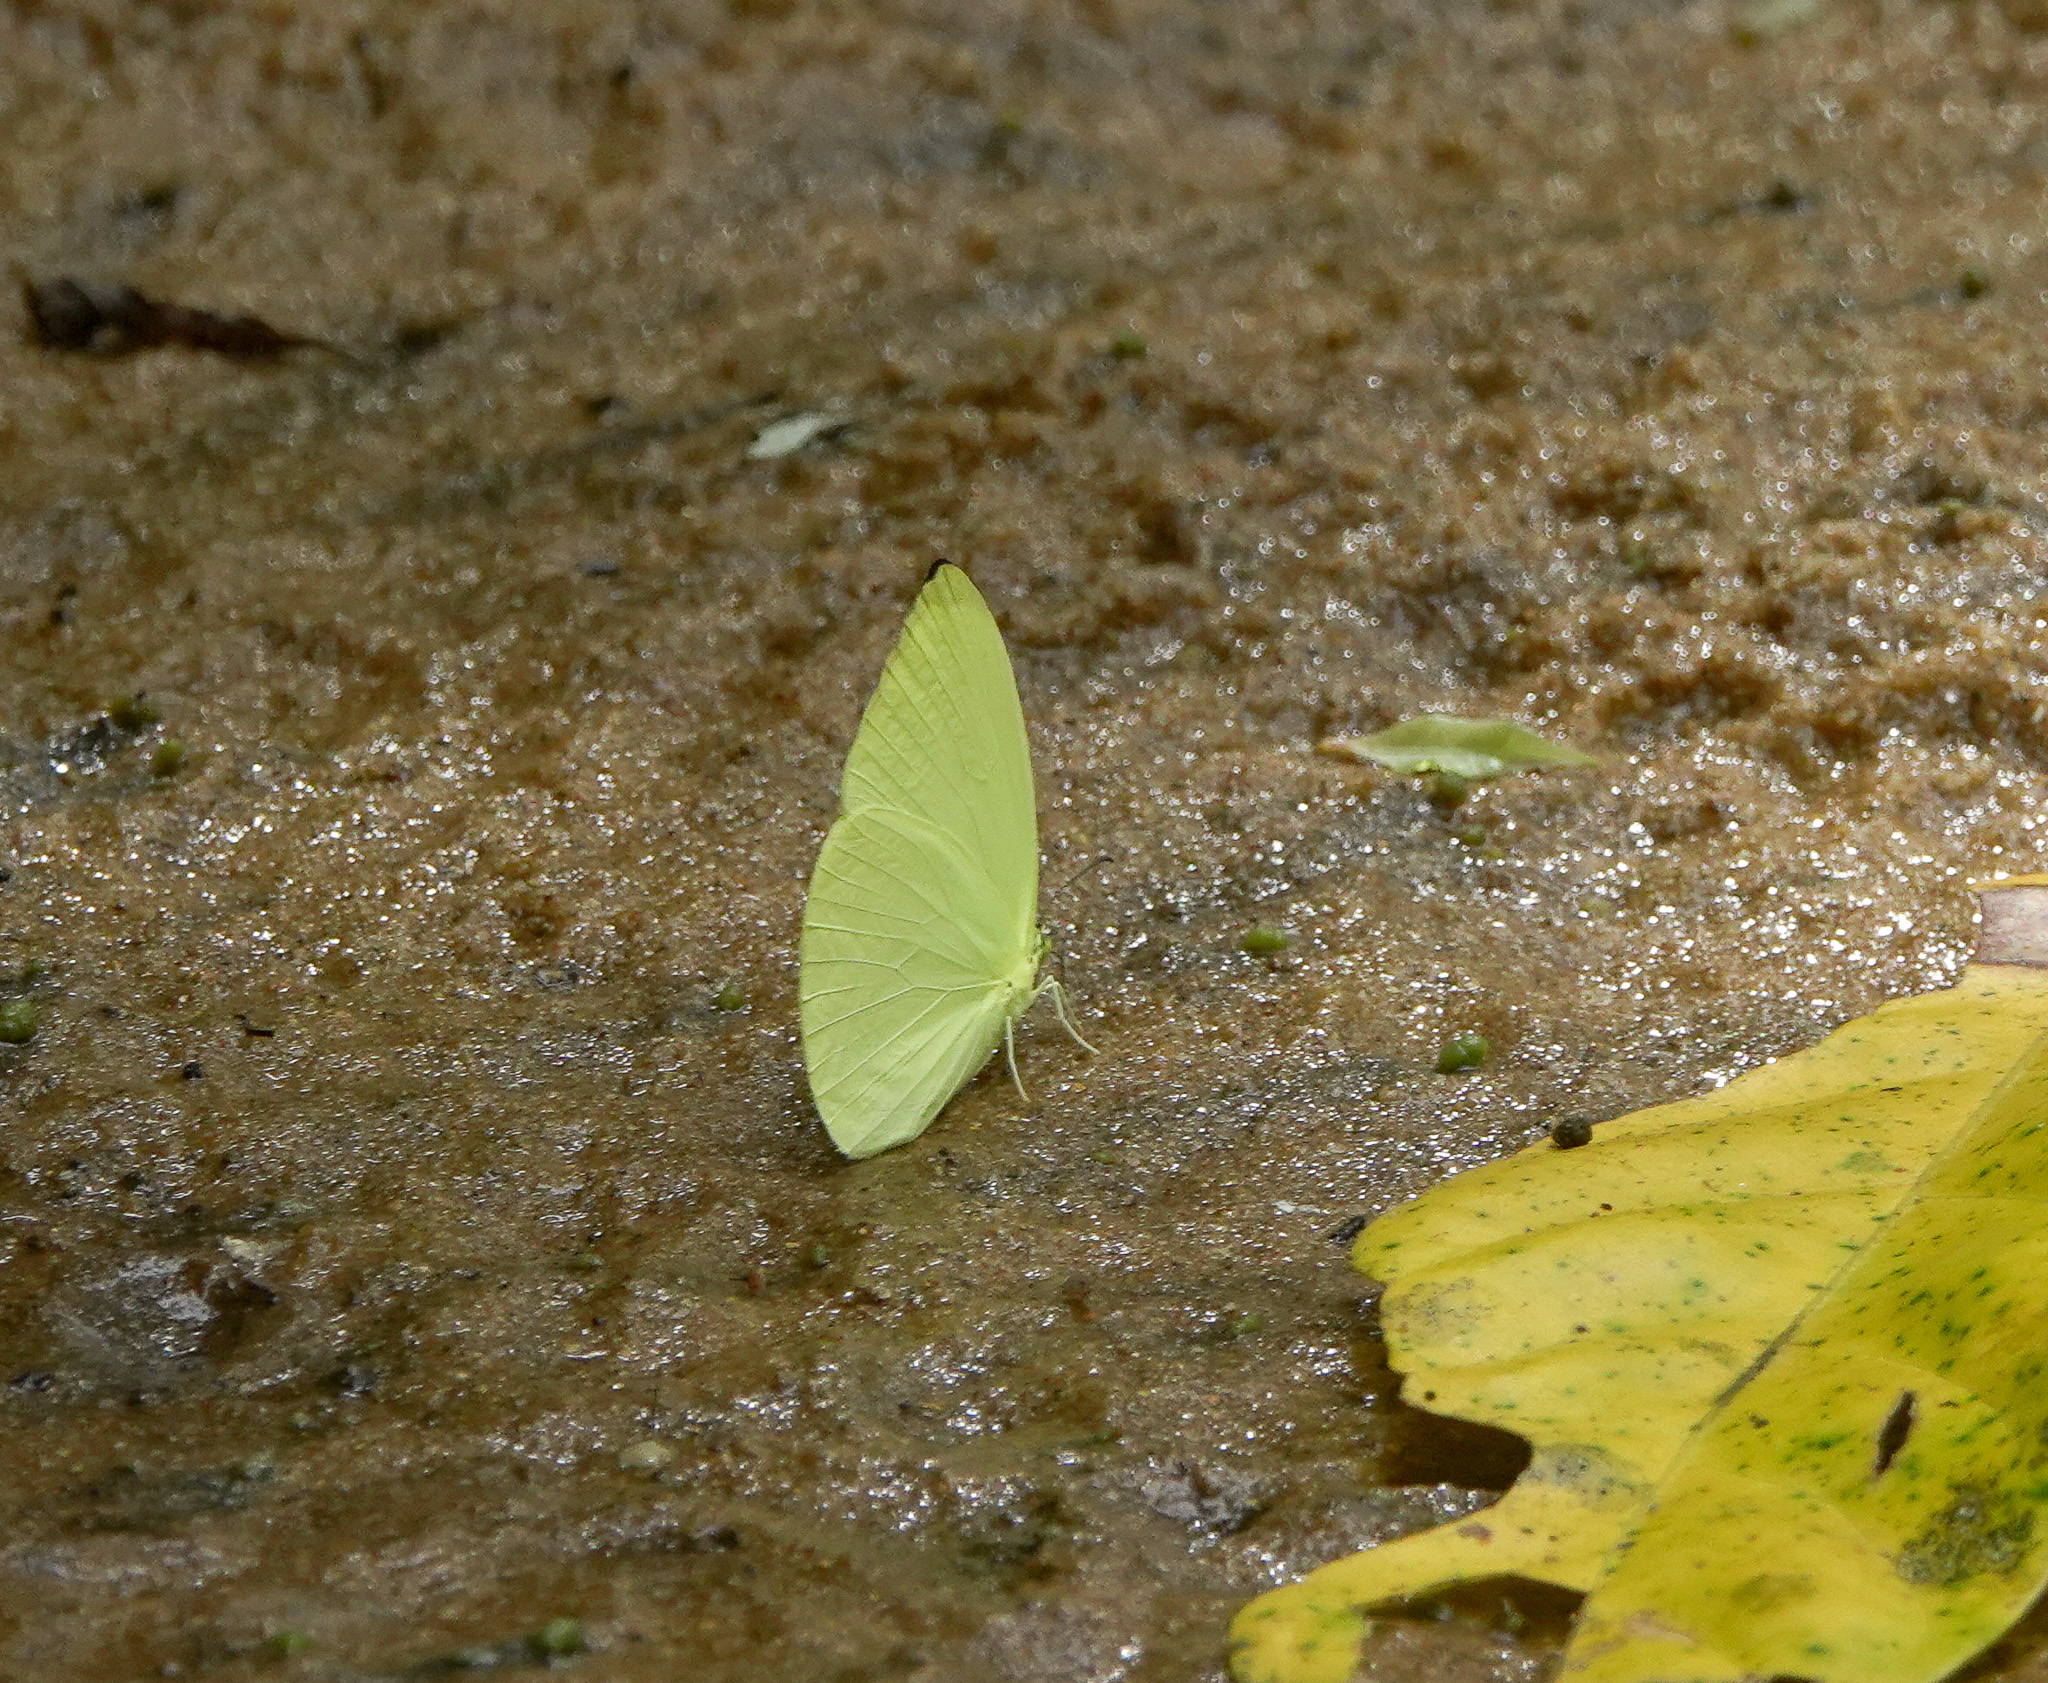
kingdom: Animalia
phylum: Arthropoda
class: Insecta
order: Lepidoptera
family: Pieridae
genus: Gandaca
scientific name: Gandaca harina
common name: Tree yellow
